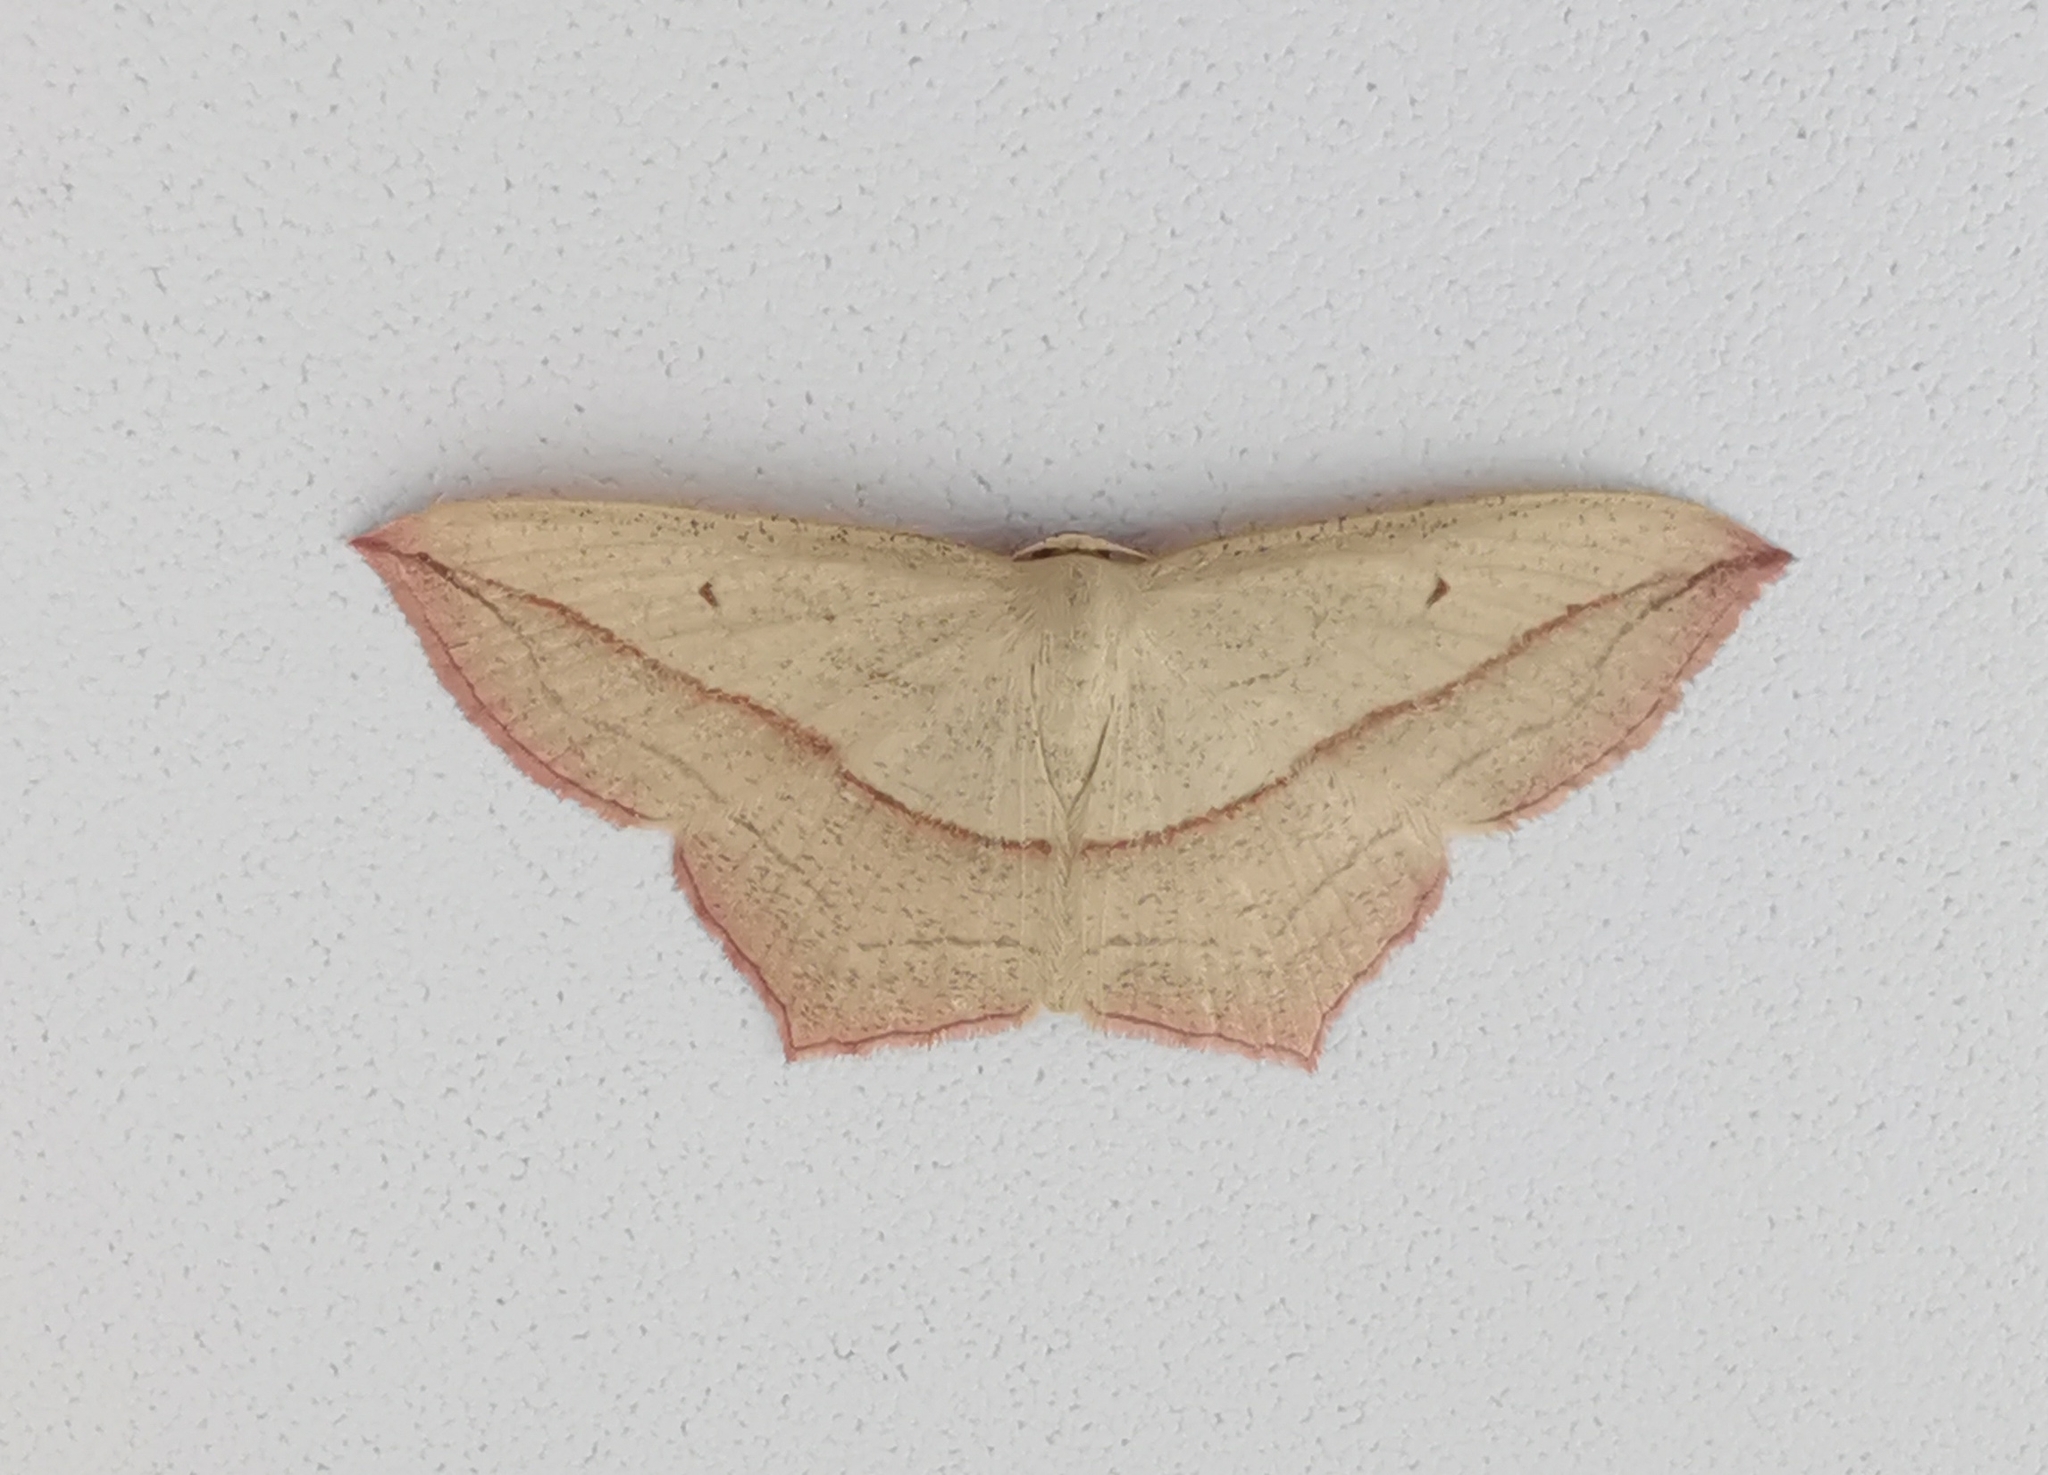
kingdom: Animalia
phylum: Arthropoda
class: Insecta
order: Lepidoptera
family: Geometridae
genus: Timandra
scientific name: Timandra comae
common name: Blood-vein
